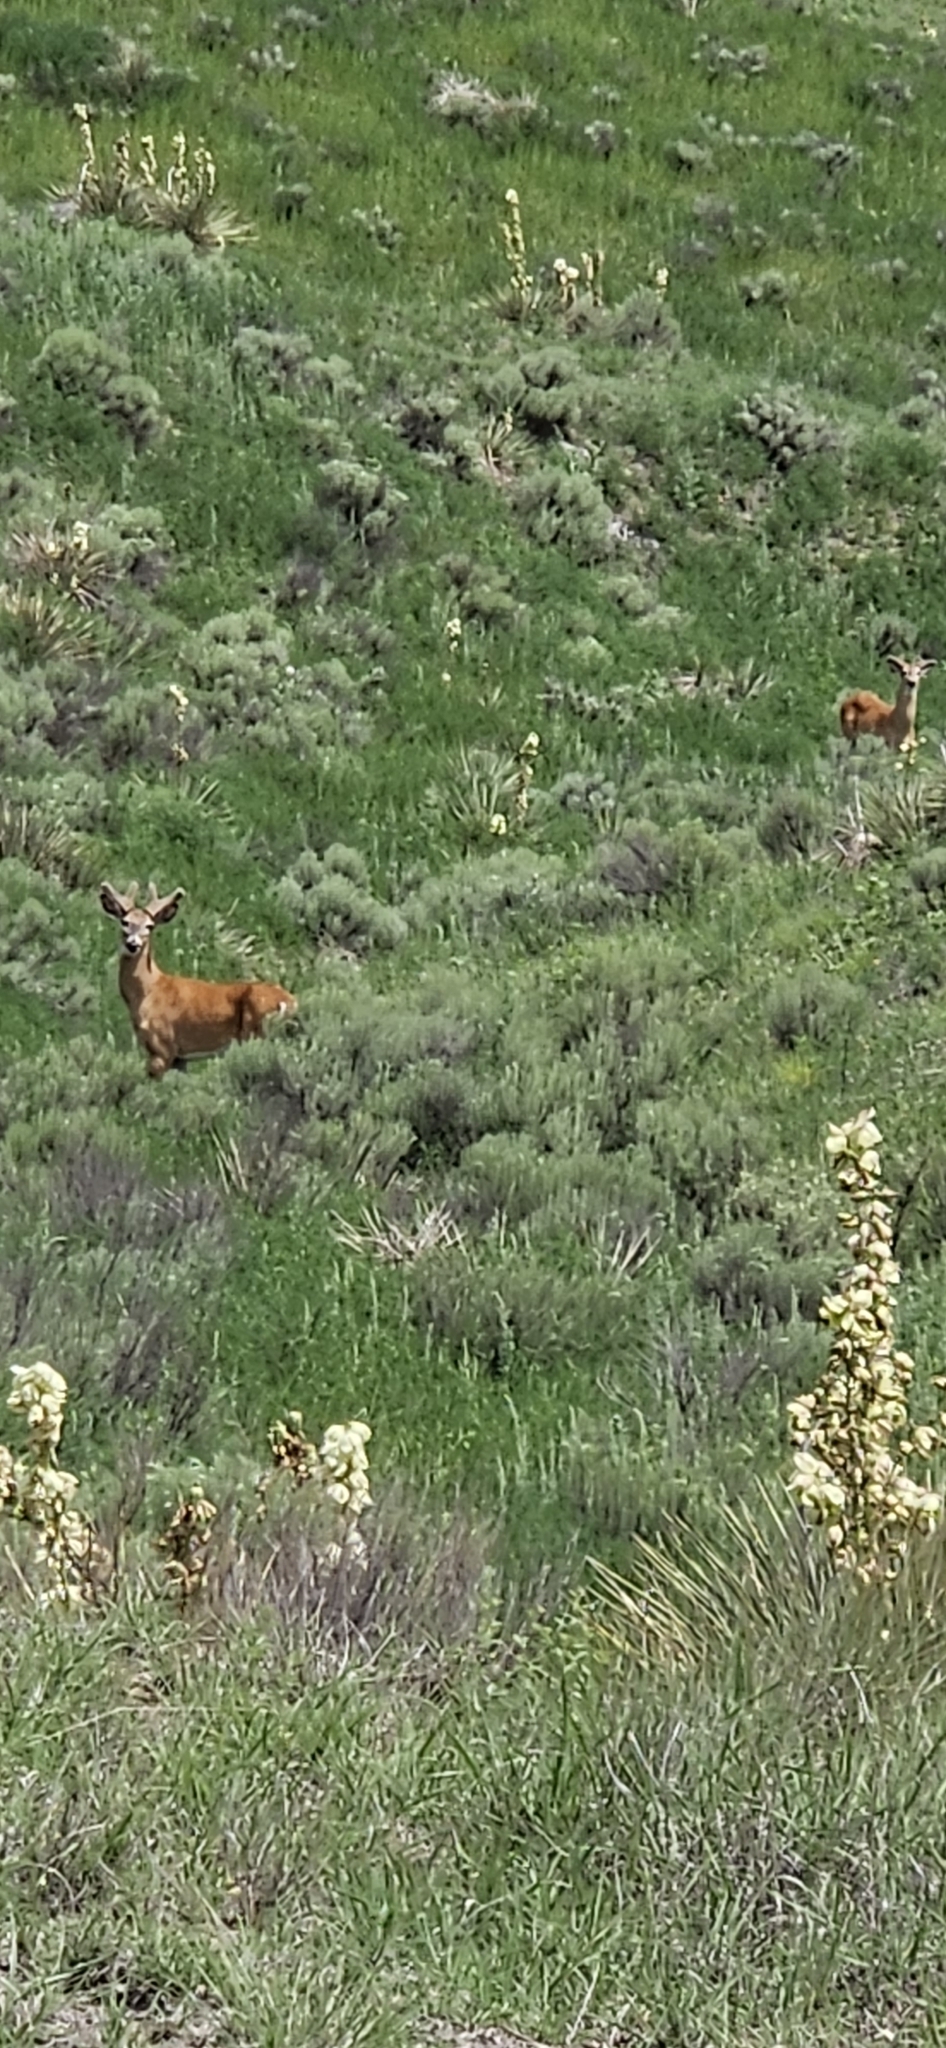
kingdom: Animalia
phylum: Chordata
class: Mammalia
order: Artiodactyla
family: Cervidae
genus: Odocoileus
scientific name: Odocoileus virginianus
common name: White-tailed deer
